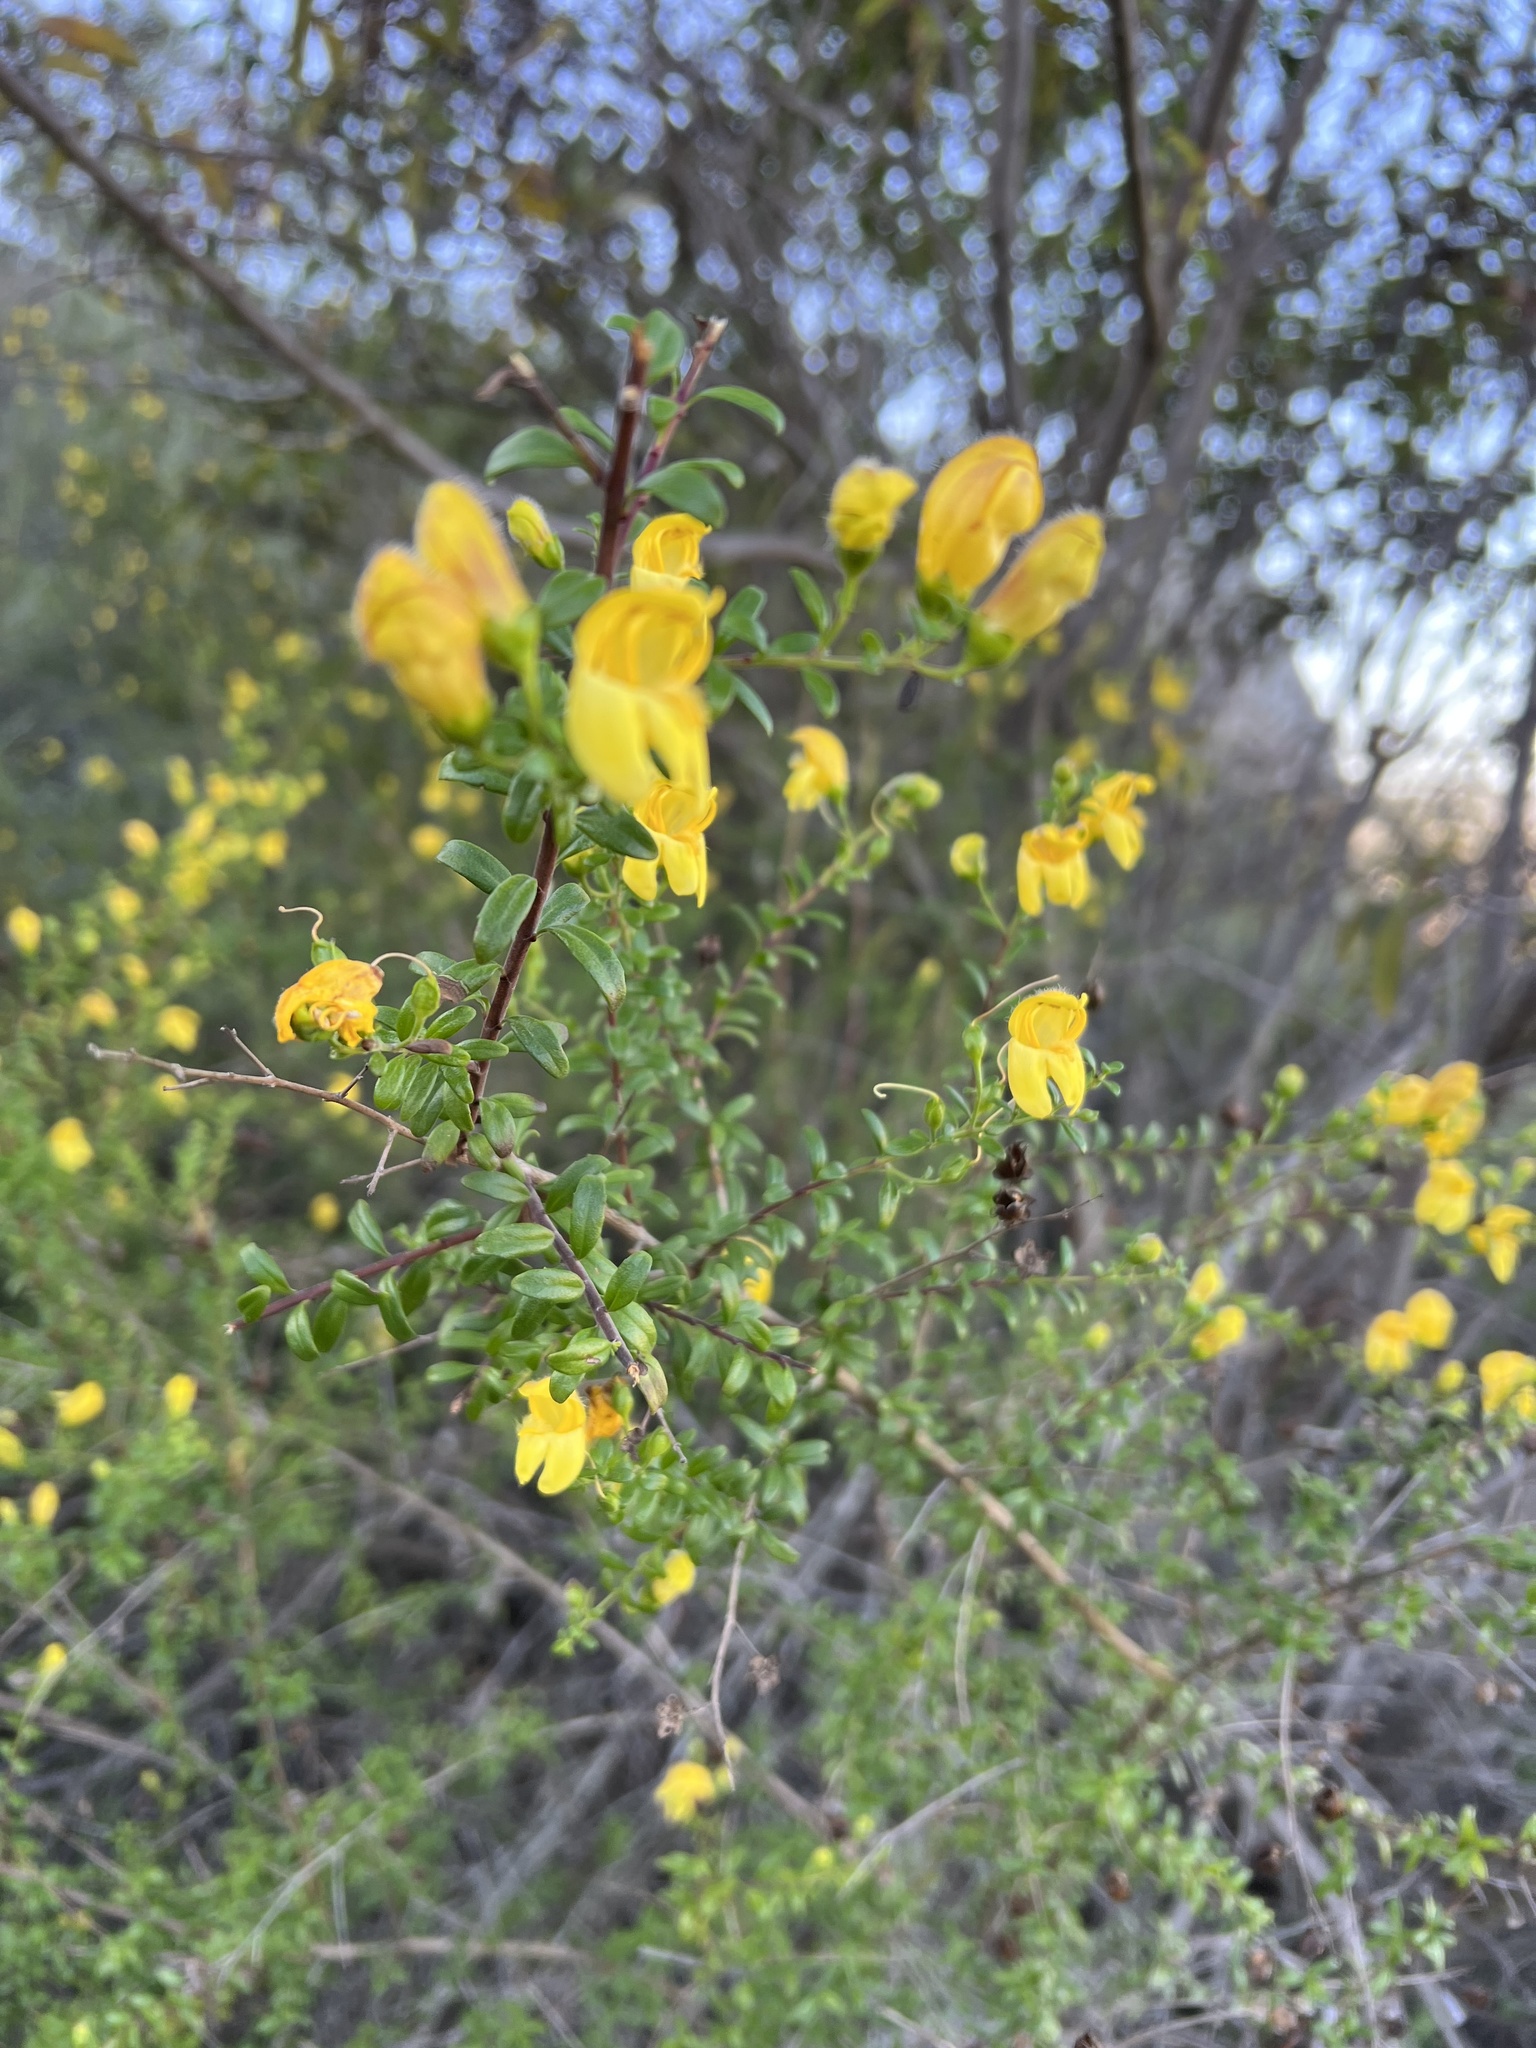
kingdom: Plantae
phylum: Tracheophyta
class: Magnoliopsida
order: Lamiales
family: Plantaginaceae
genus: Keckiella
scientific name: Keckiella antirrhinoides
